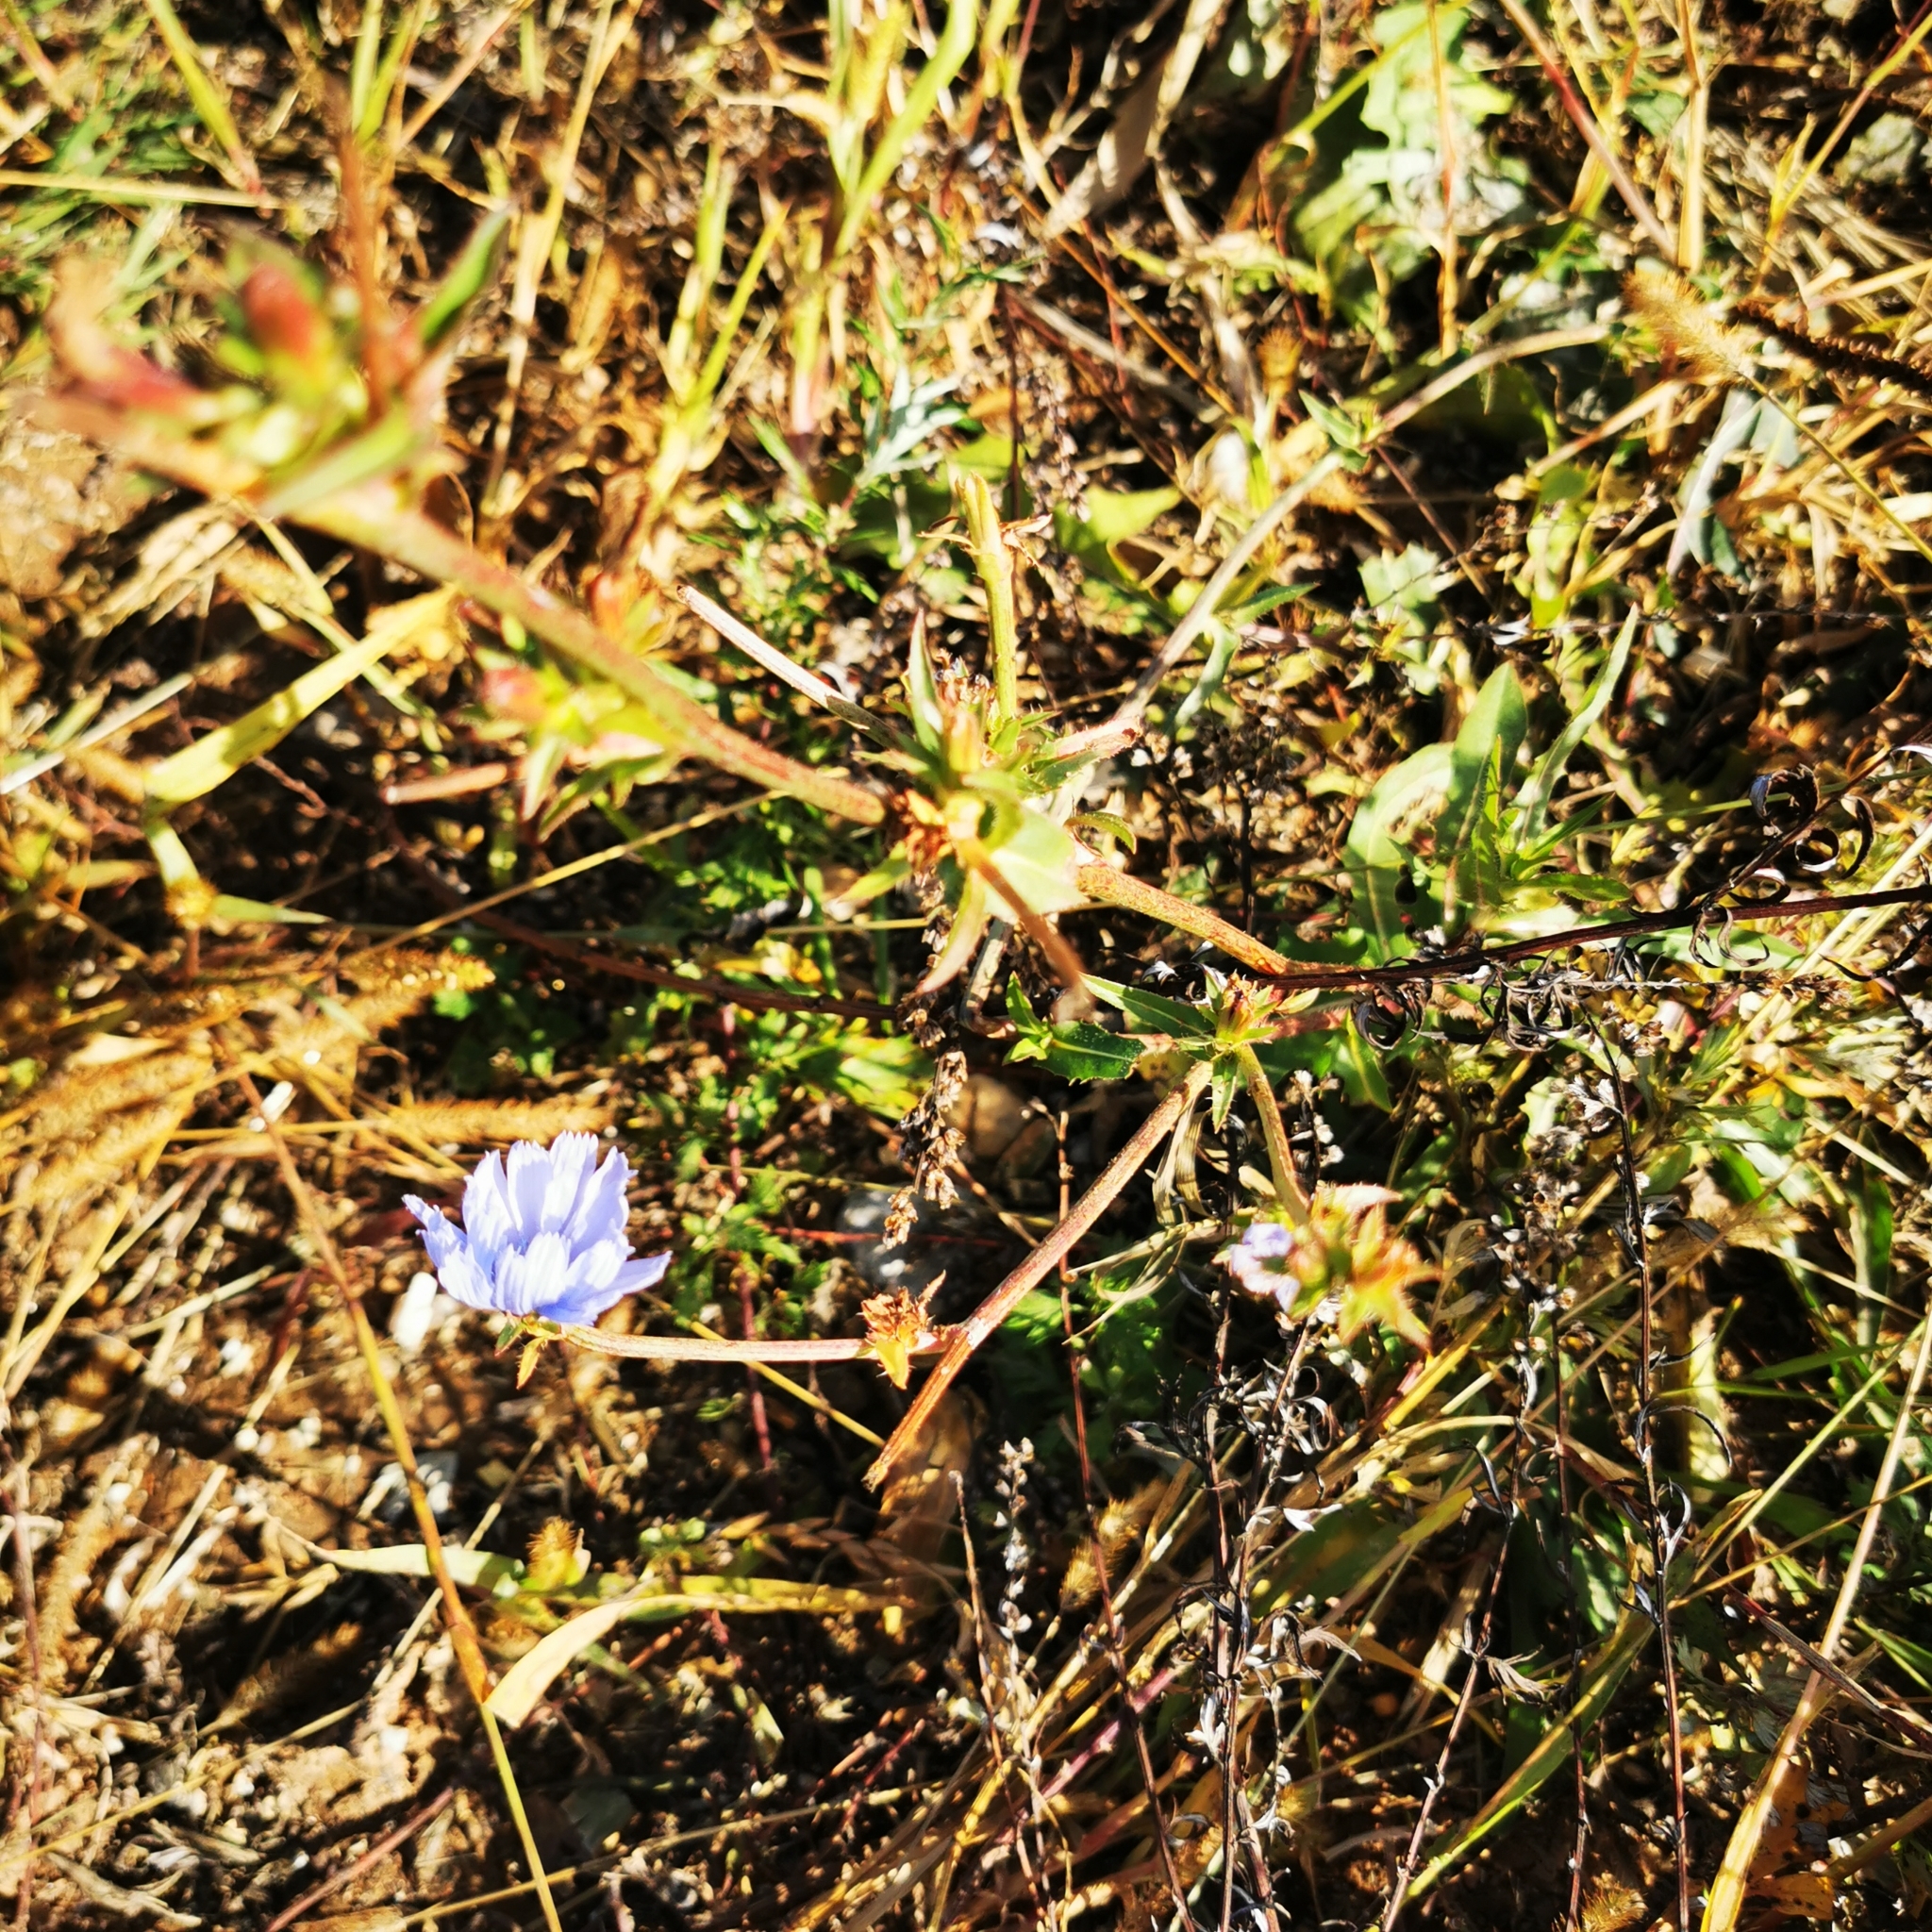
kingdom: Plantae
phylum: Tracheophyta
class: Magnoliopsida
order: Asterales
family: Asteraceae
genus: Cichorium
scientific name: Cichorium intybus
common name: Chicory
